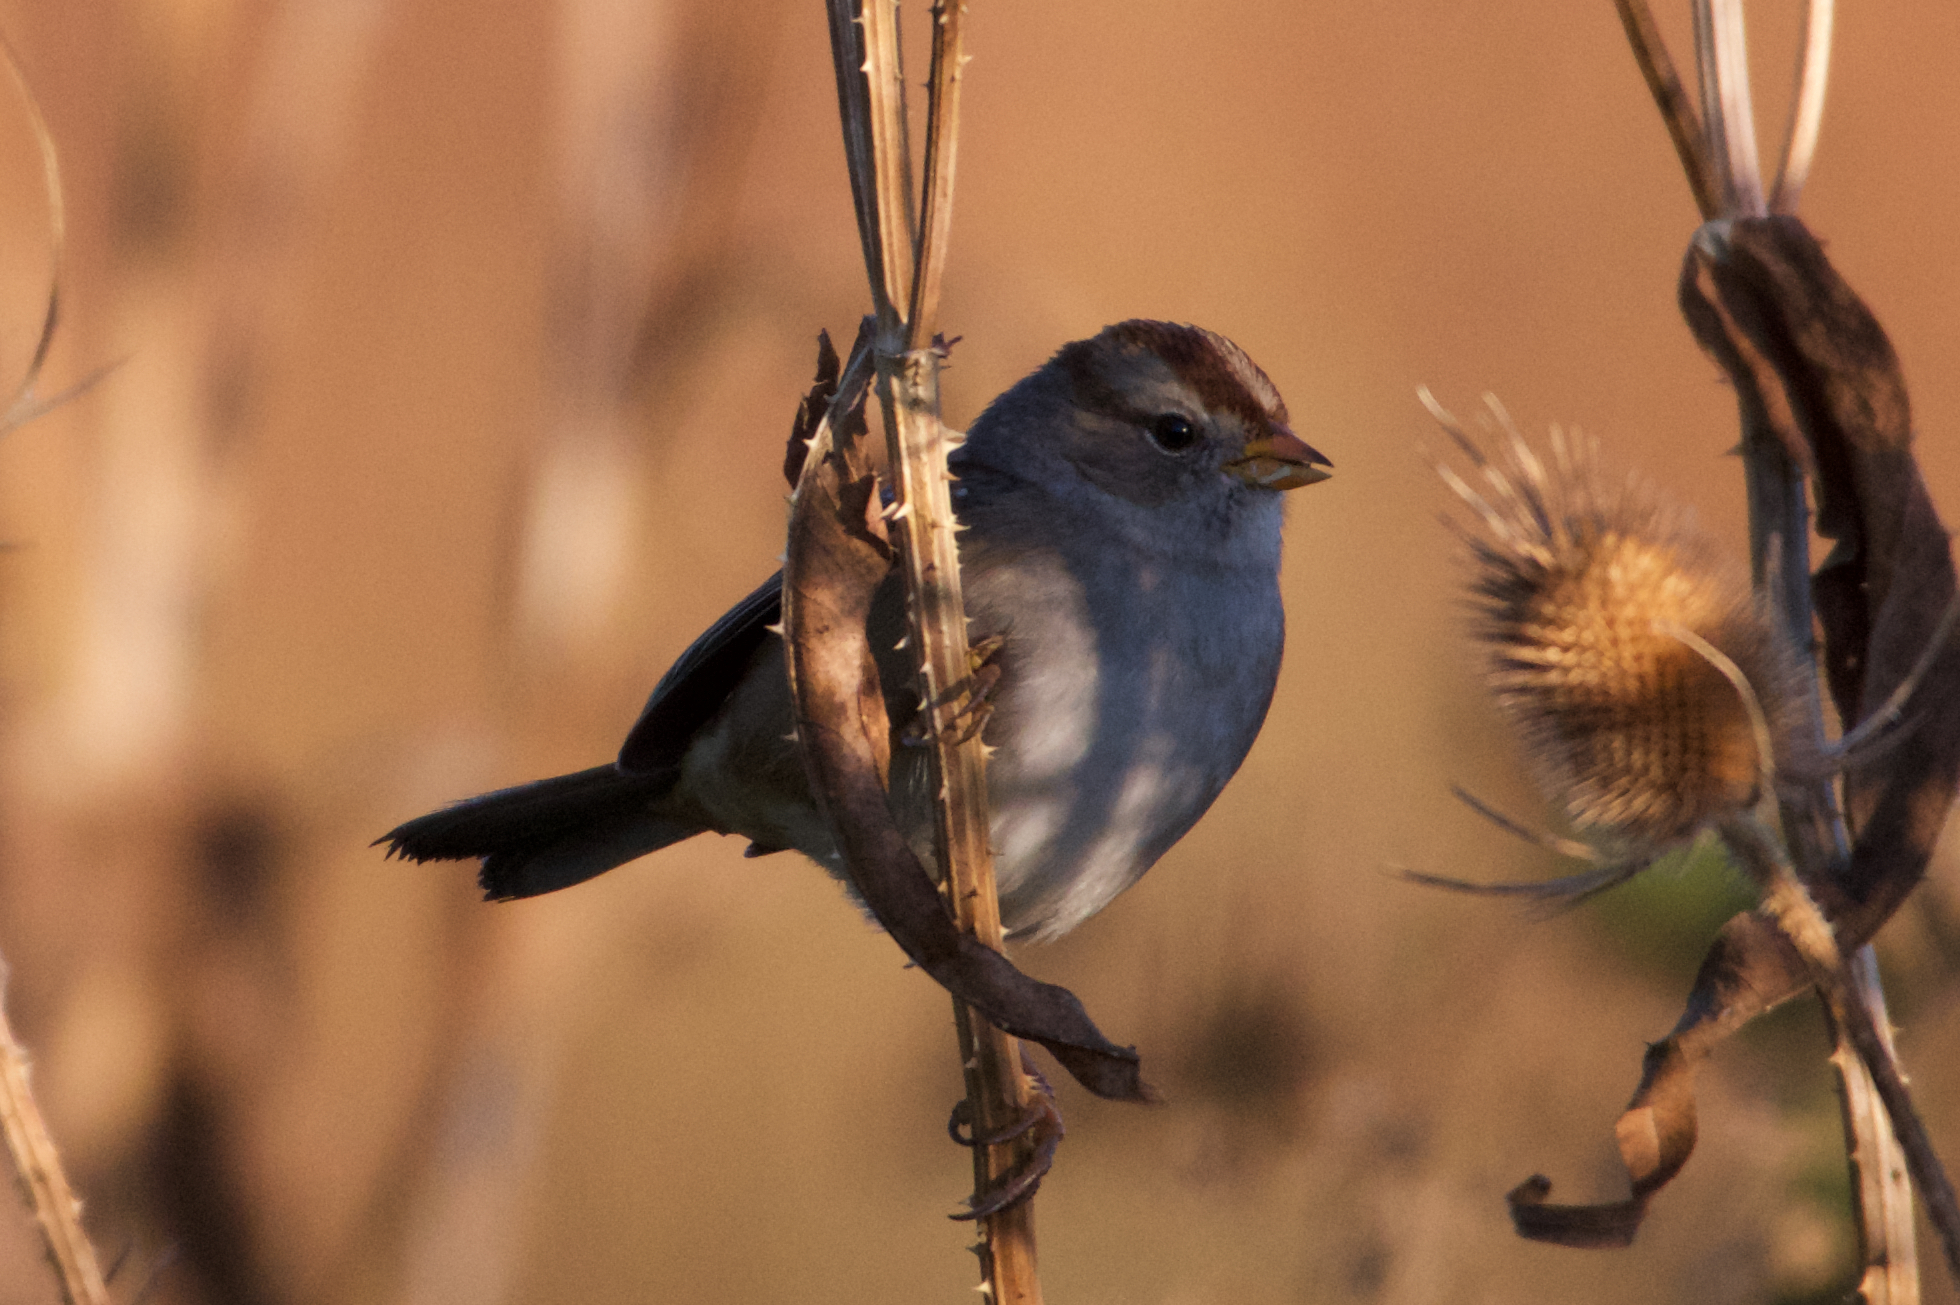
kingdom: Animalia
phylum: Chordata
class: Aves
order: Passeriformes
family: Passerellidae
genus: Zonotrichia
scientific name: Zonotrichia leucophrys
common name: White-crowned sparrow
